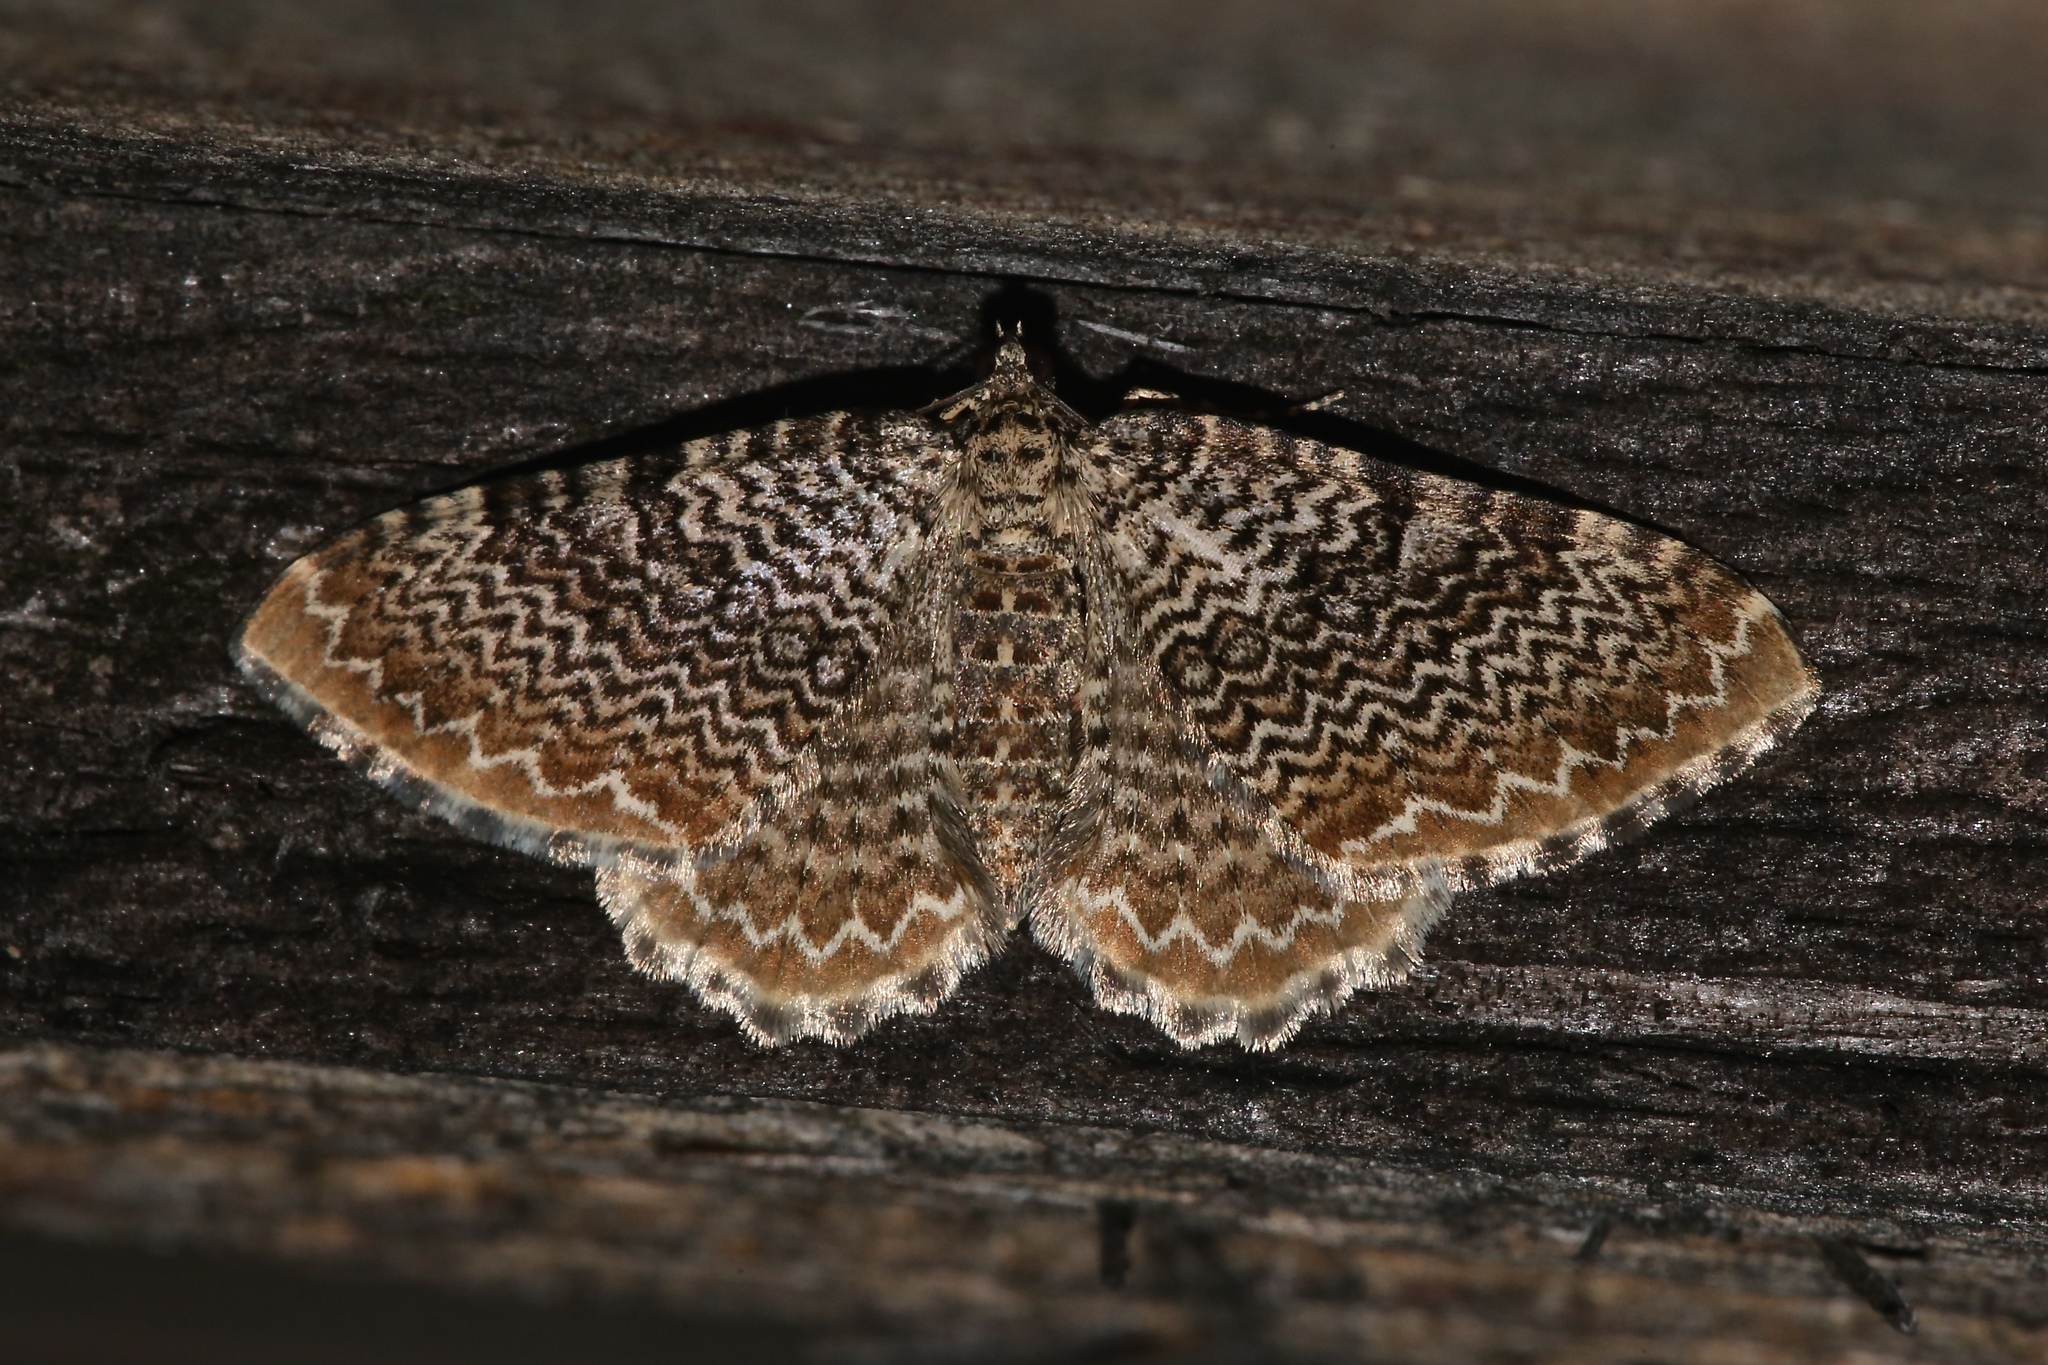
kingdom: Animalia
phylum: Arthropoda
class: Insecta
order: Lepidoptera
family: Geometridae
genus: Rheumaptera
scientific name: Rheumaptera undulata
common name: Scallop shell
